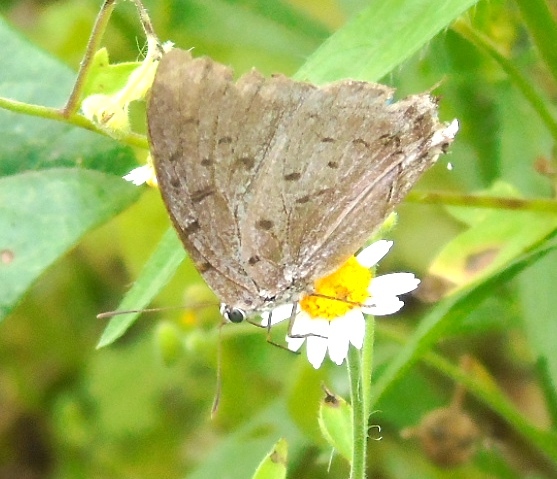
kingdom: Animalia
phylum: Arthropoda
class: Insecta
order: Lepidoptera
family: Lycaenidae
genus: Pseudolycaena
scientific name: Pseudolycaena damo
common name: Sky-blue hairstreak
